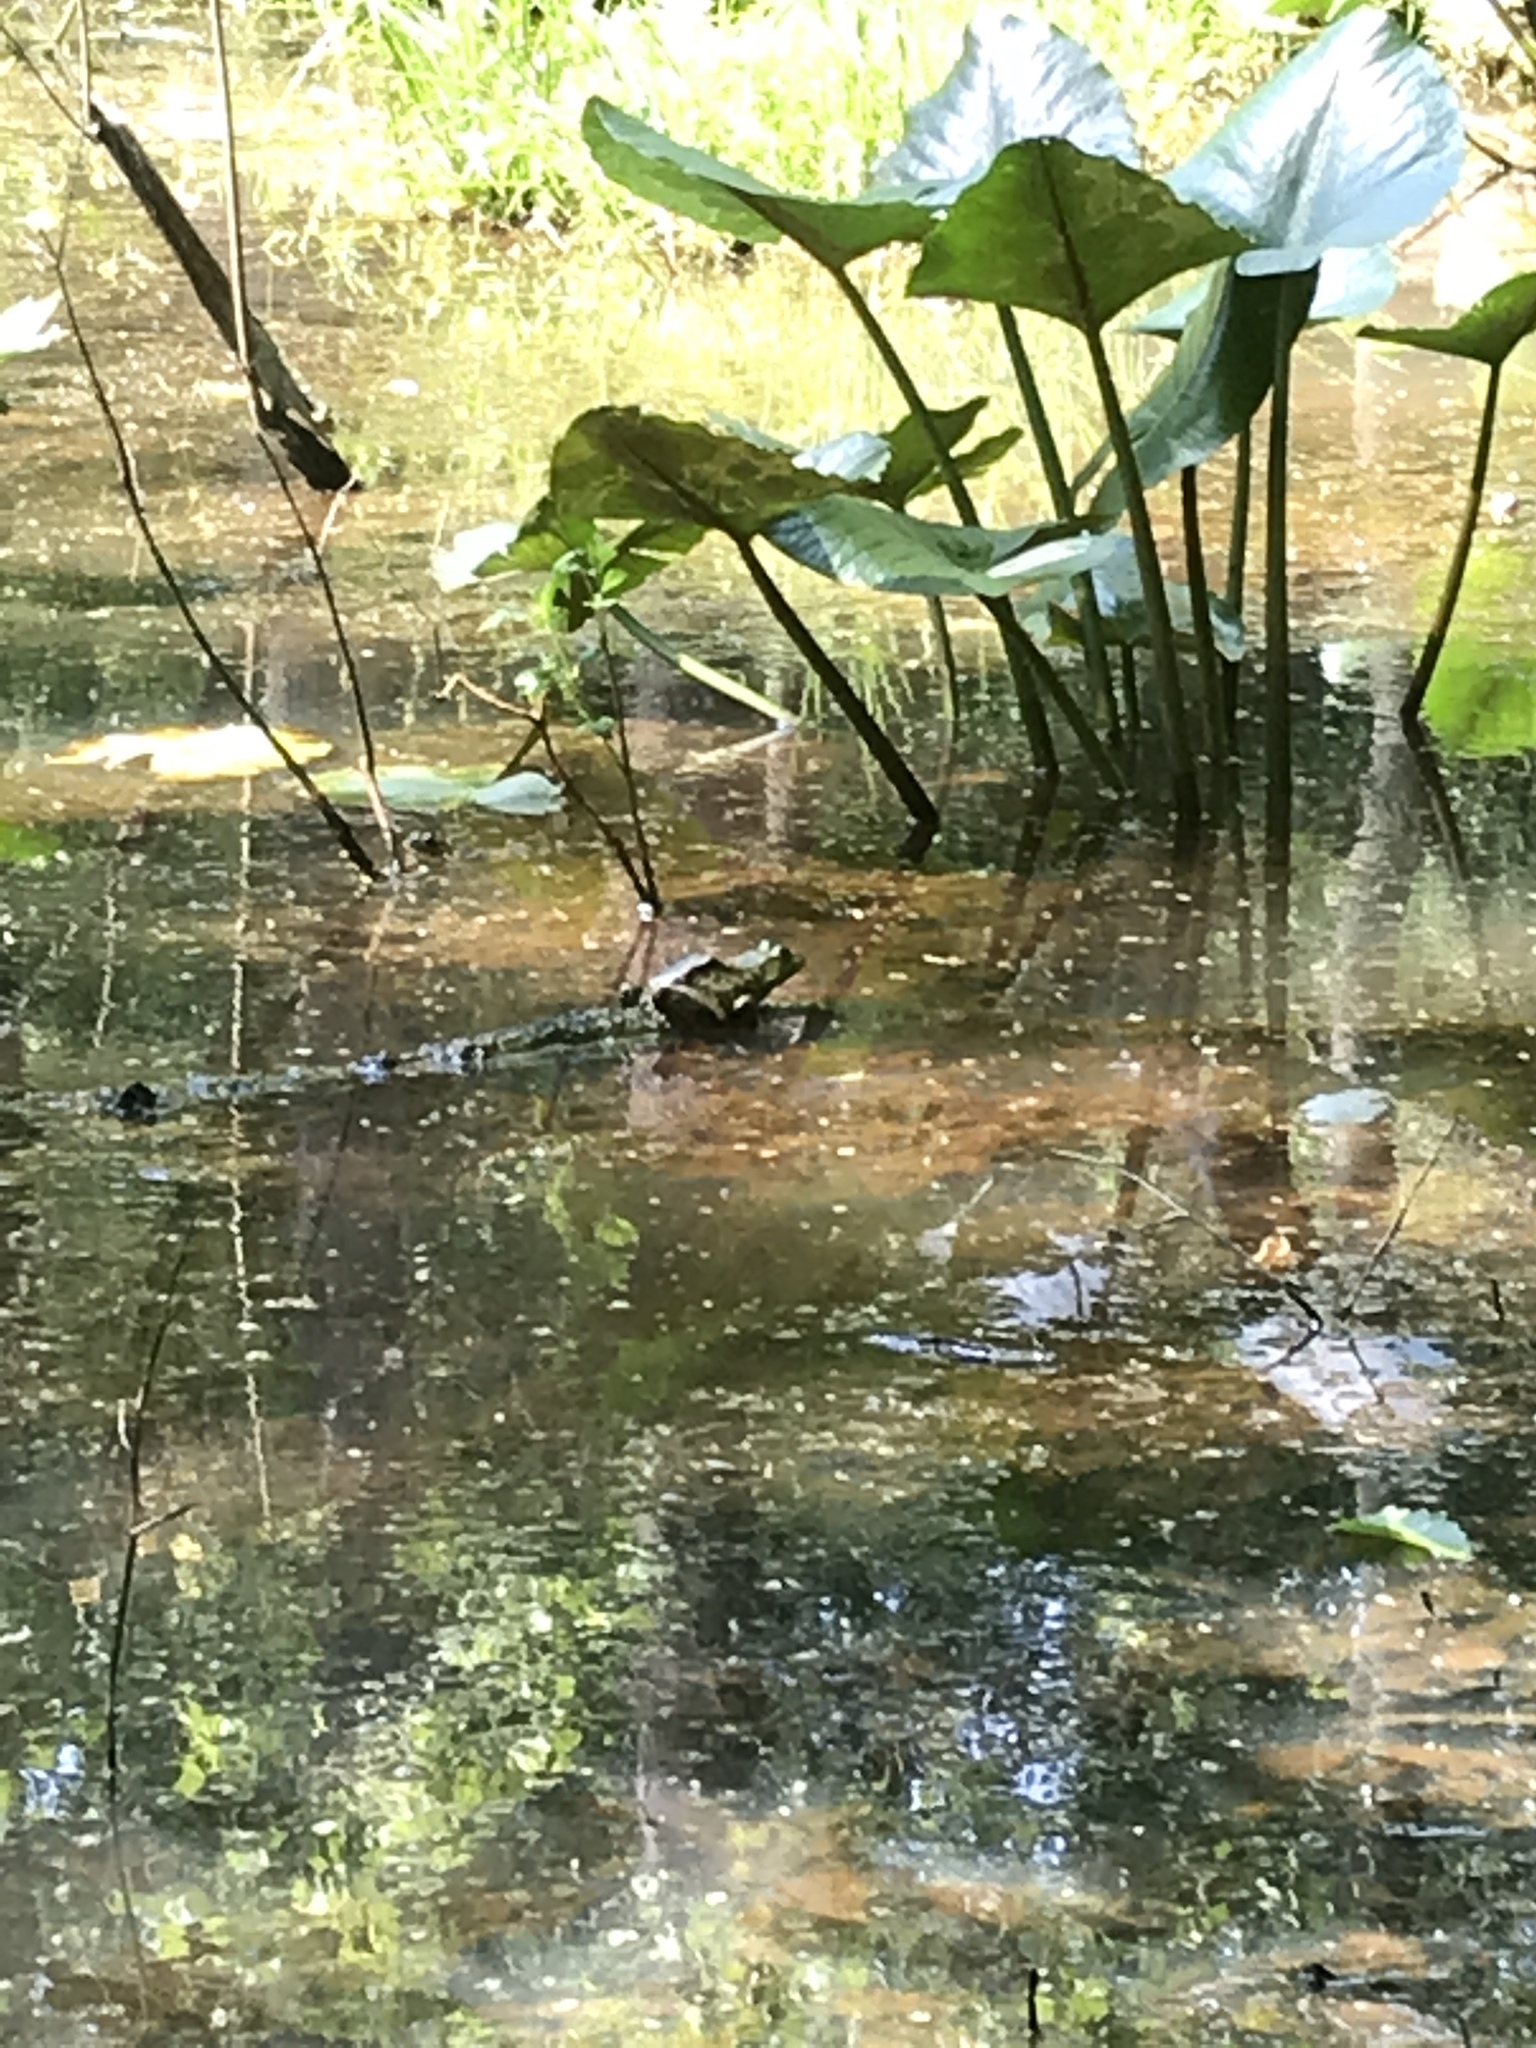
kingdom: Animalia
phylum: Chordata
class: Amphibia
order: Anura
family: Ranidae
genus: Lithobates
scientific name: Lithobates
